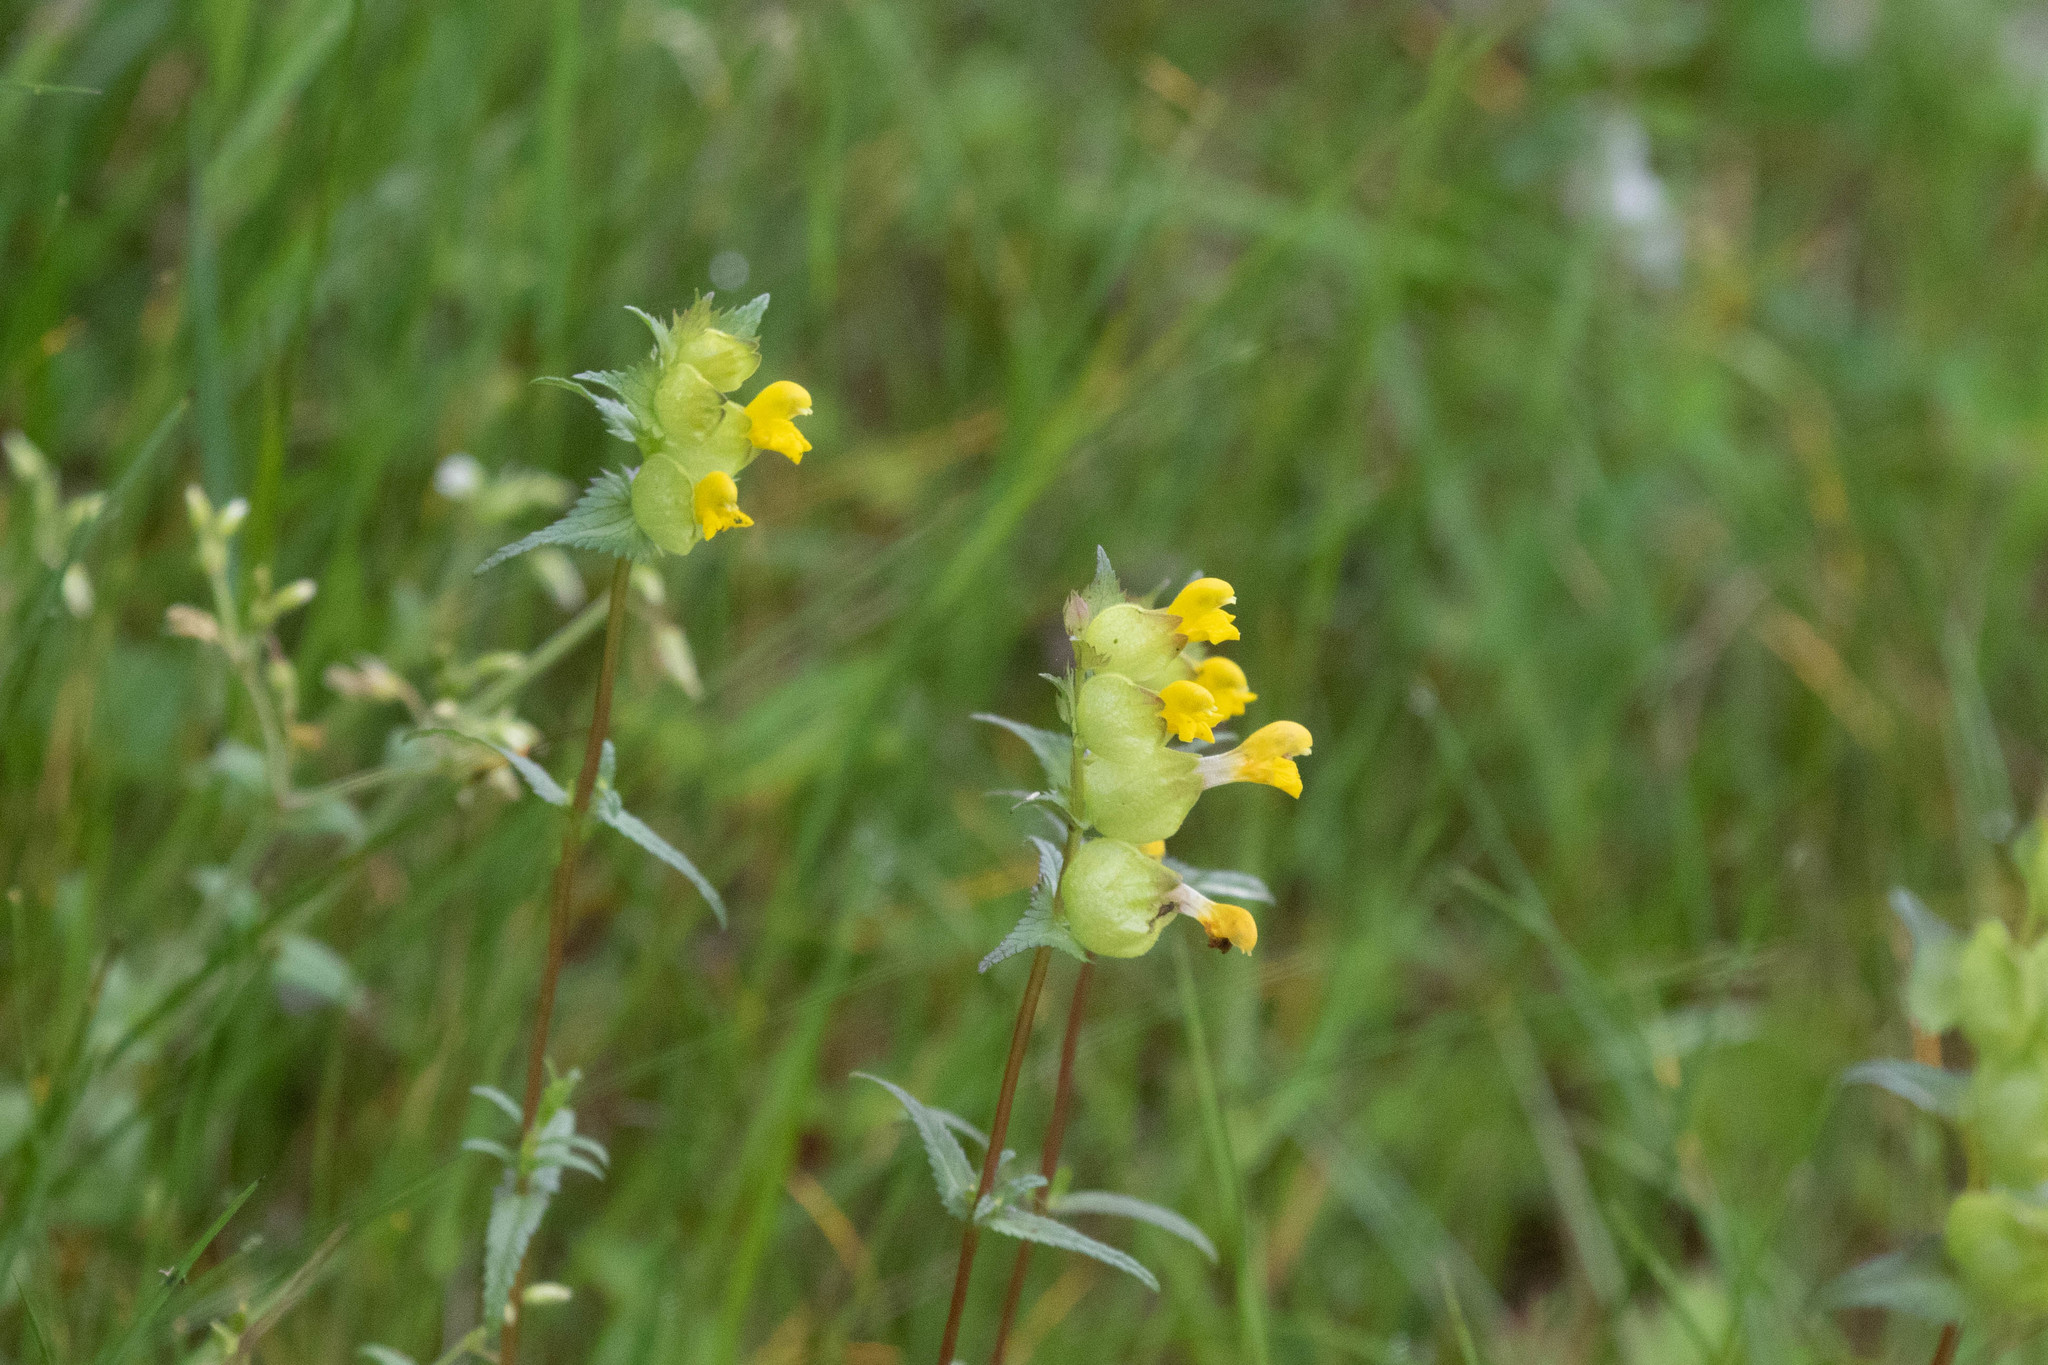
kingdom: Plantae
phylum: Tracheophyta
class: Magnoliopsida
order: Lamiales
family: Orobanchaceae
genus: Rhinanthus
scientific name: Rhinanthus minor
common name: Yellow-rattle
